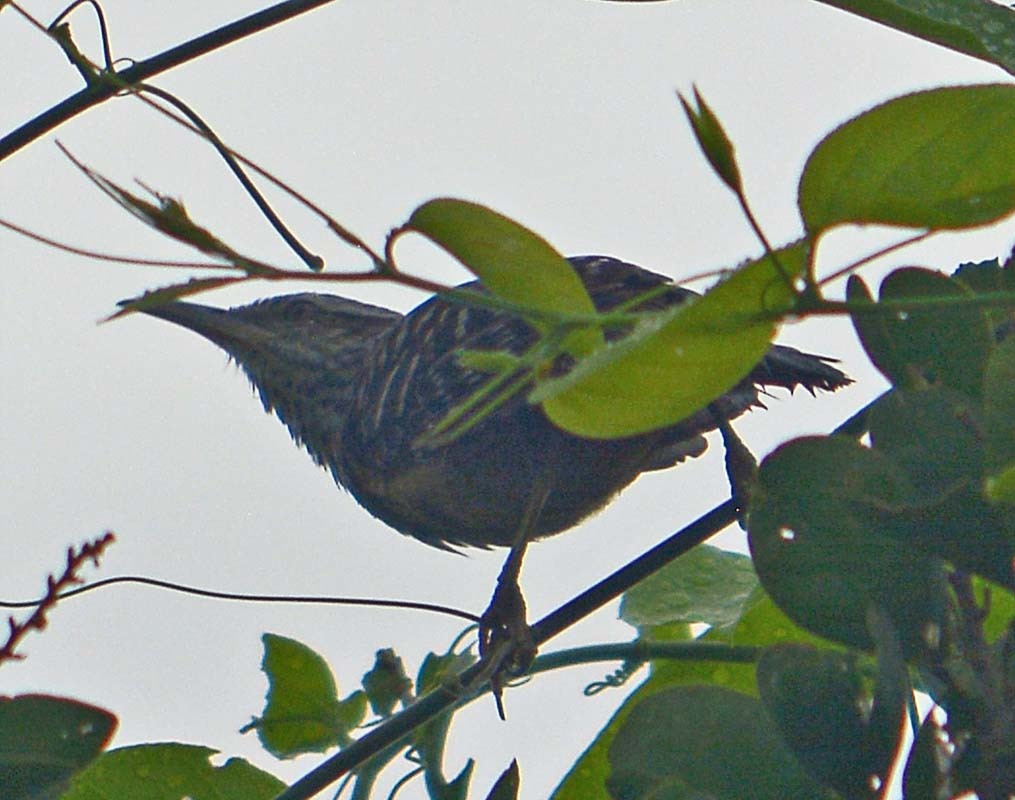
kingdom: Animalia
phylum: Chordata
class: Aves
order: Passeriformes
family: Troglodytidae
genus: Campylorhynchus
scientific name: Campylorhynchus zonatus
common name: Band-backed wren
